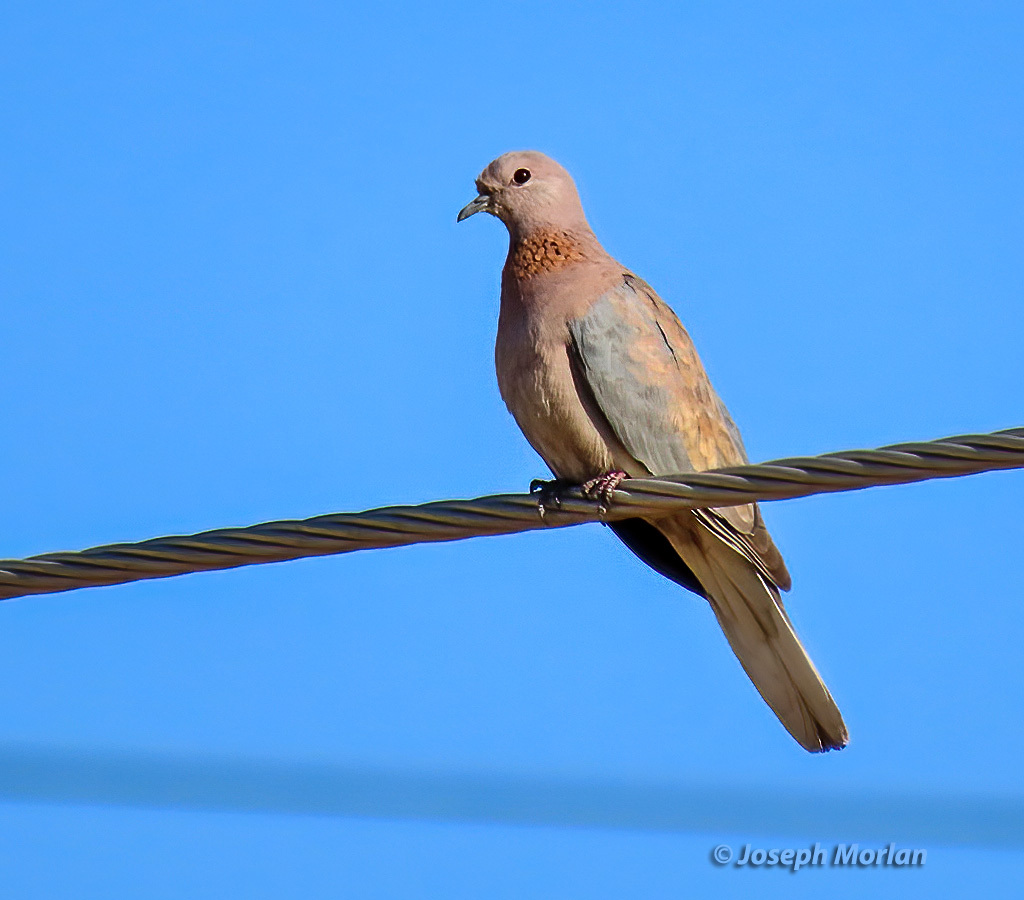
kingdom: Animalia
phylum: Chordata
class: Aves
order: Columbiformes
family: Columbidae
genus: Spilopelia
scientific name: Spilopelia senegalensis
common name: Laughing dove
